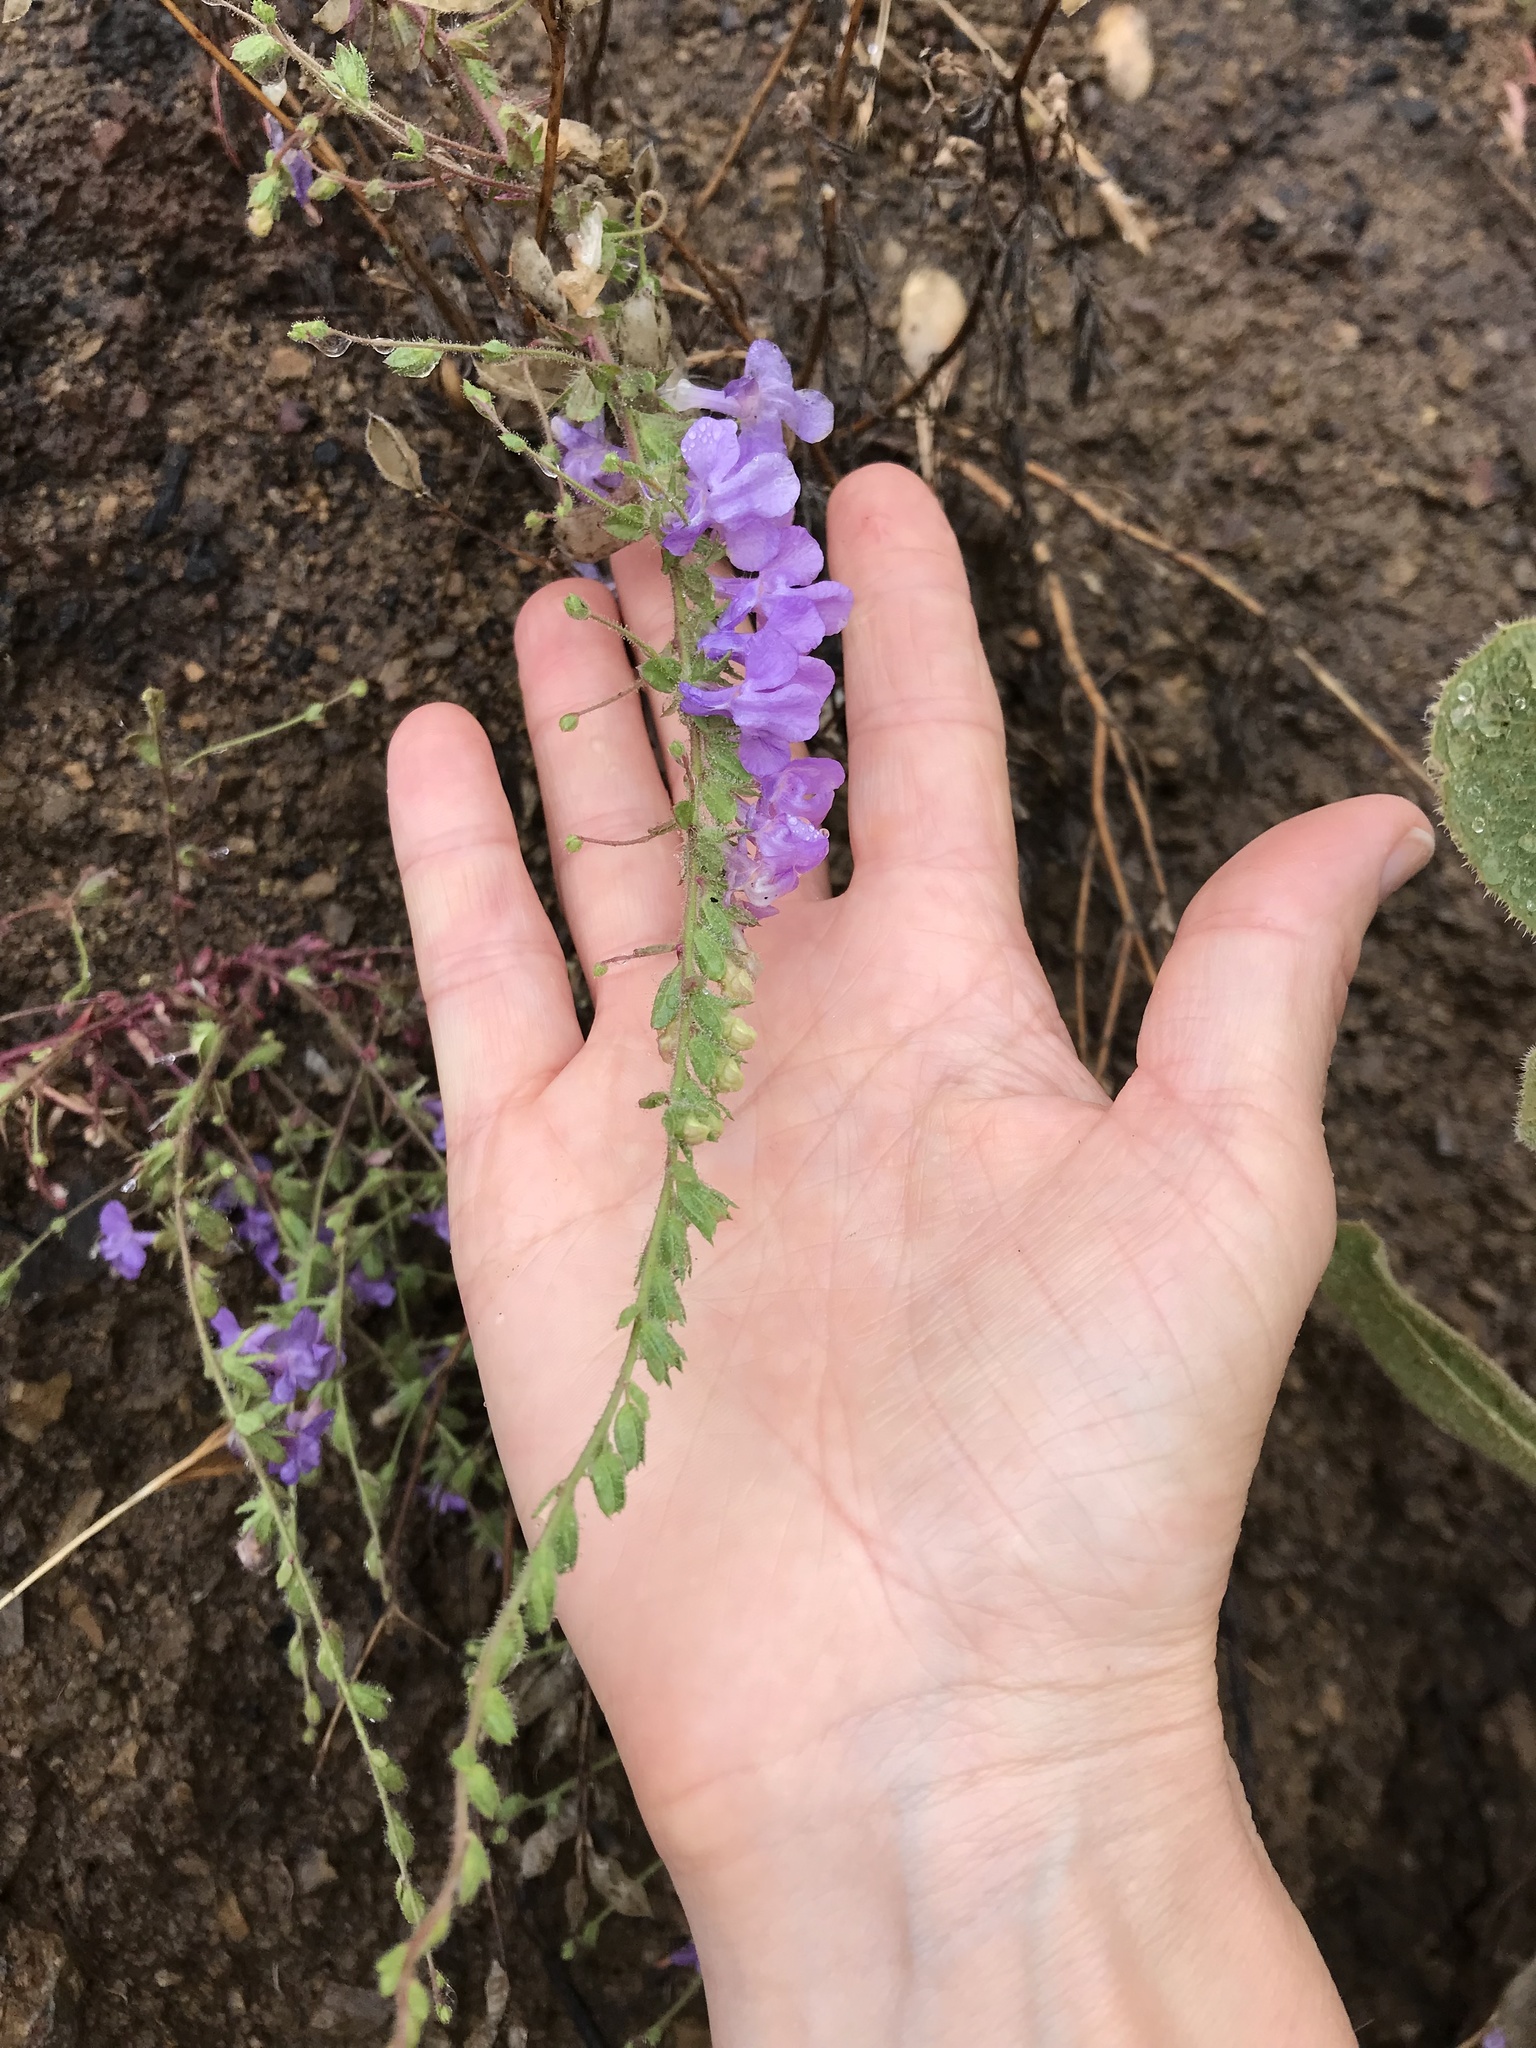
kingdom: Plantae
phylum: Tracheophyta
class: Magnoliopsida
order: Lamiales
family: Plantaginaceae
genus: Sairocarpus
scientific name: Sairocarpus vexillocalyculatus
